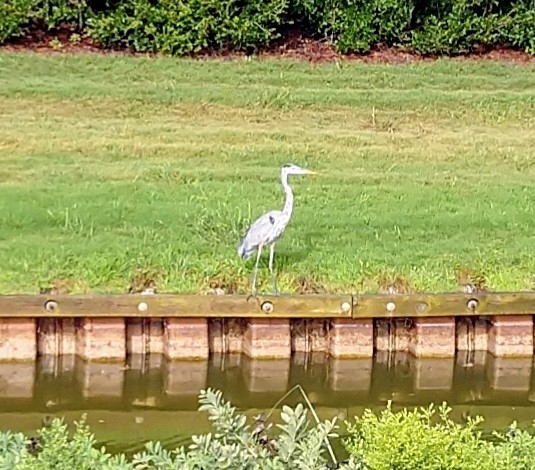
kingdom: Animalia
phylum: Chordata
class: Aves
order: Pelecaniformes
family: Ardeidae
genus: Ardea
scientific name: Ardea herodias
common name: Great blue heron
